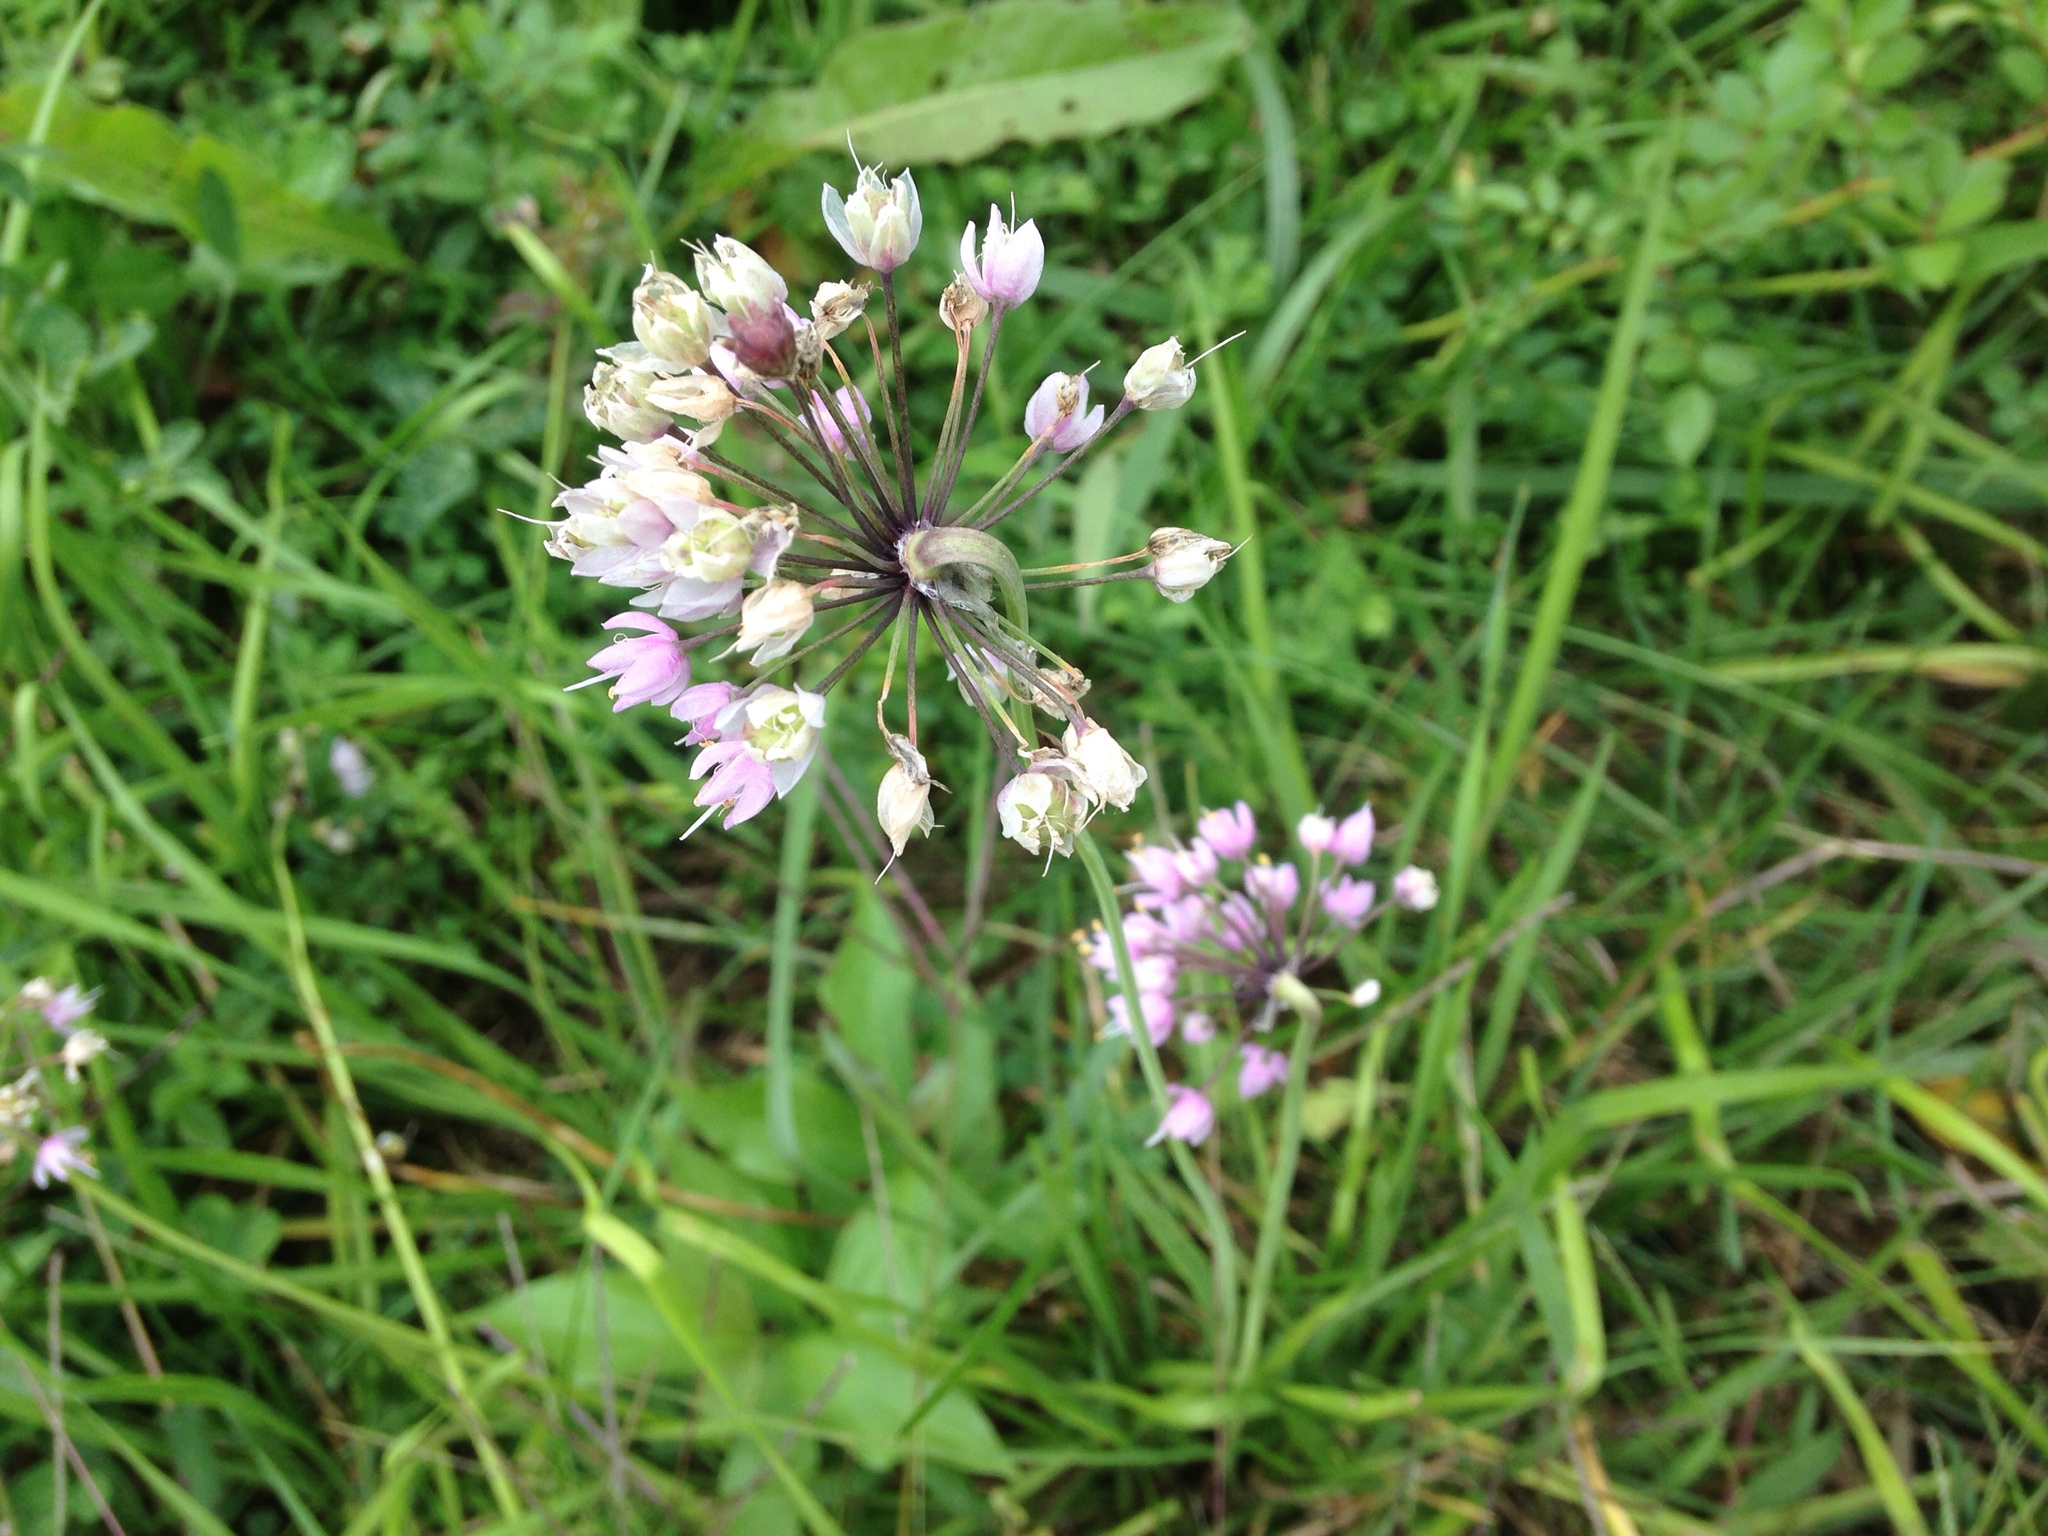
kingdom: Plantae
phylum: Tracheophyta
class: Liliopsida
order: Asparagales
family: Amaryllidaceae
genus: Allium
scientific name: Allium cernuum
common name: Nodding onion
